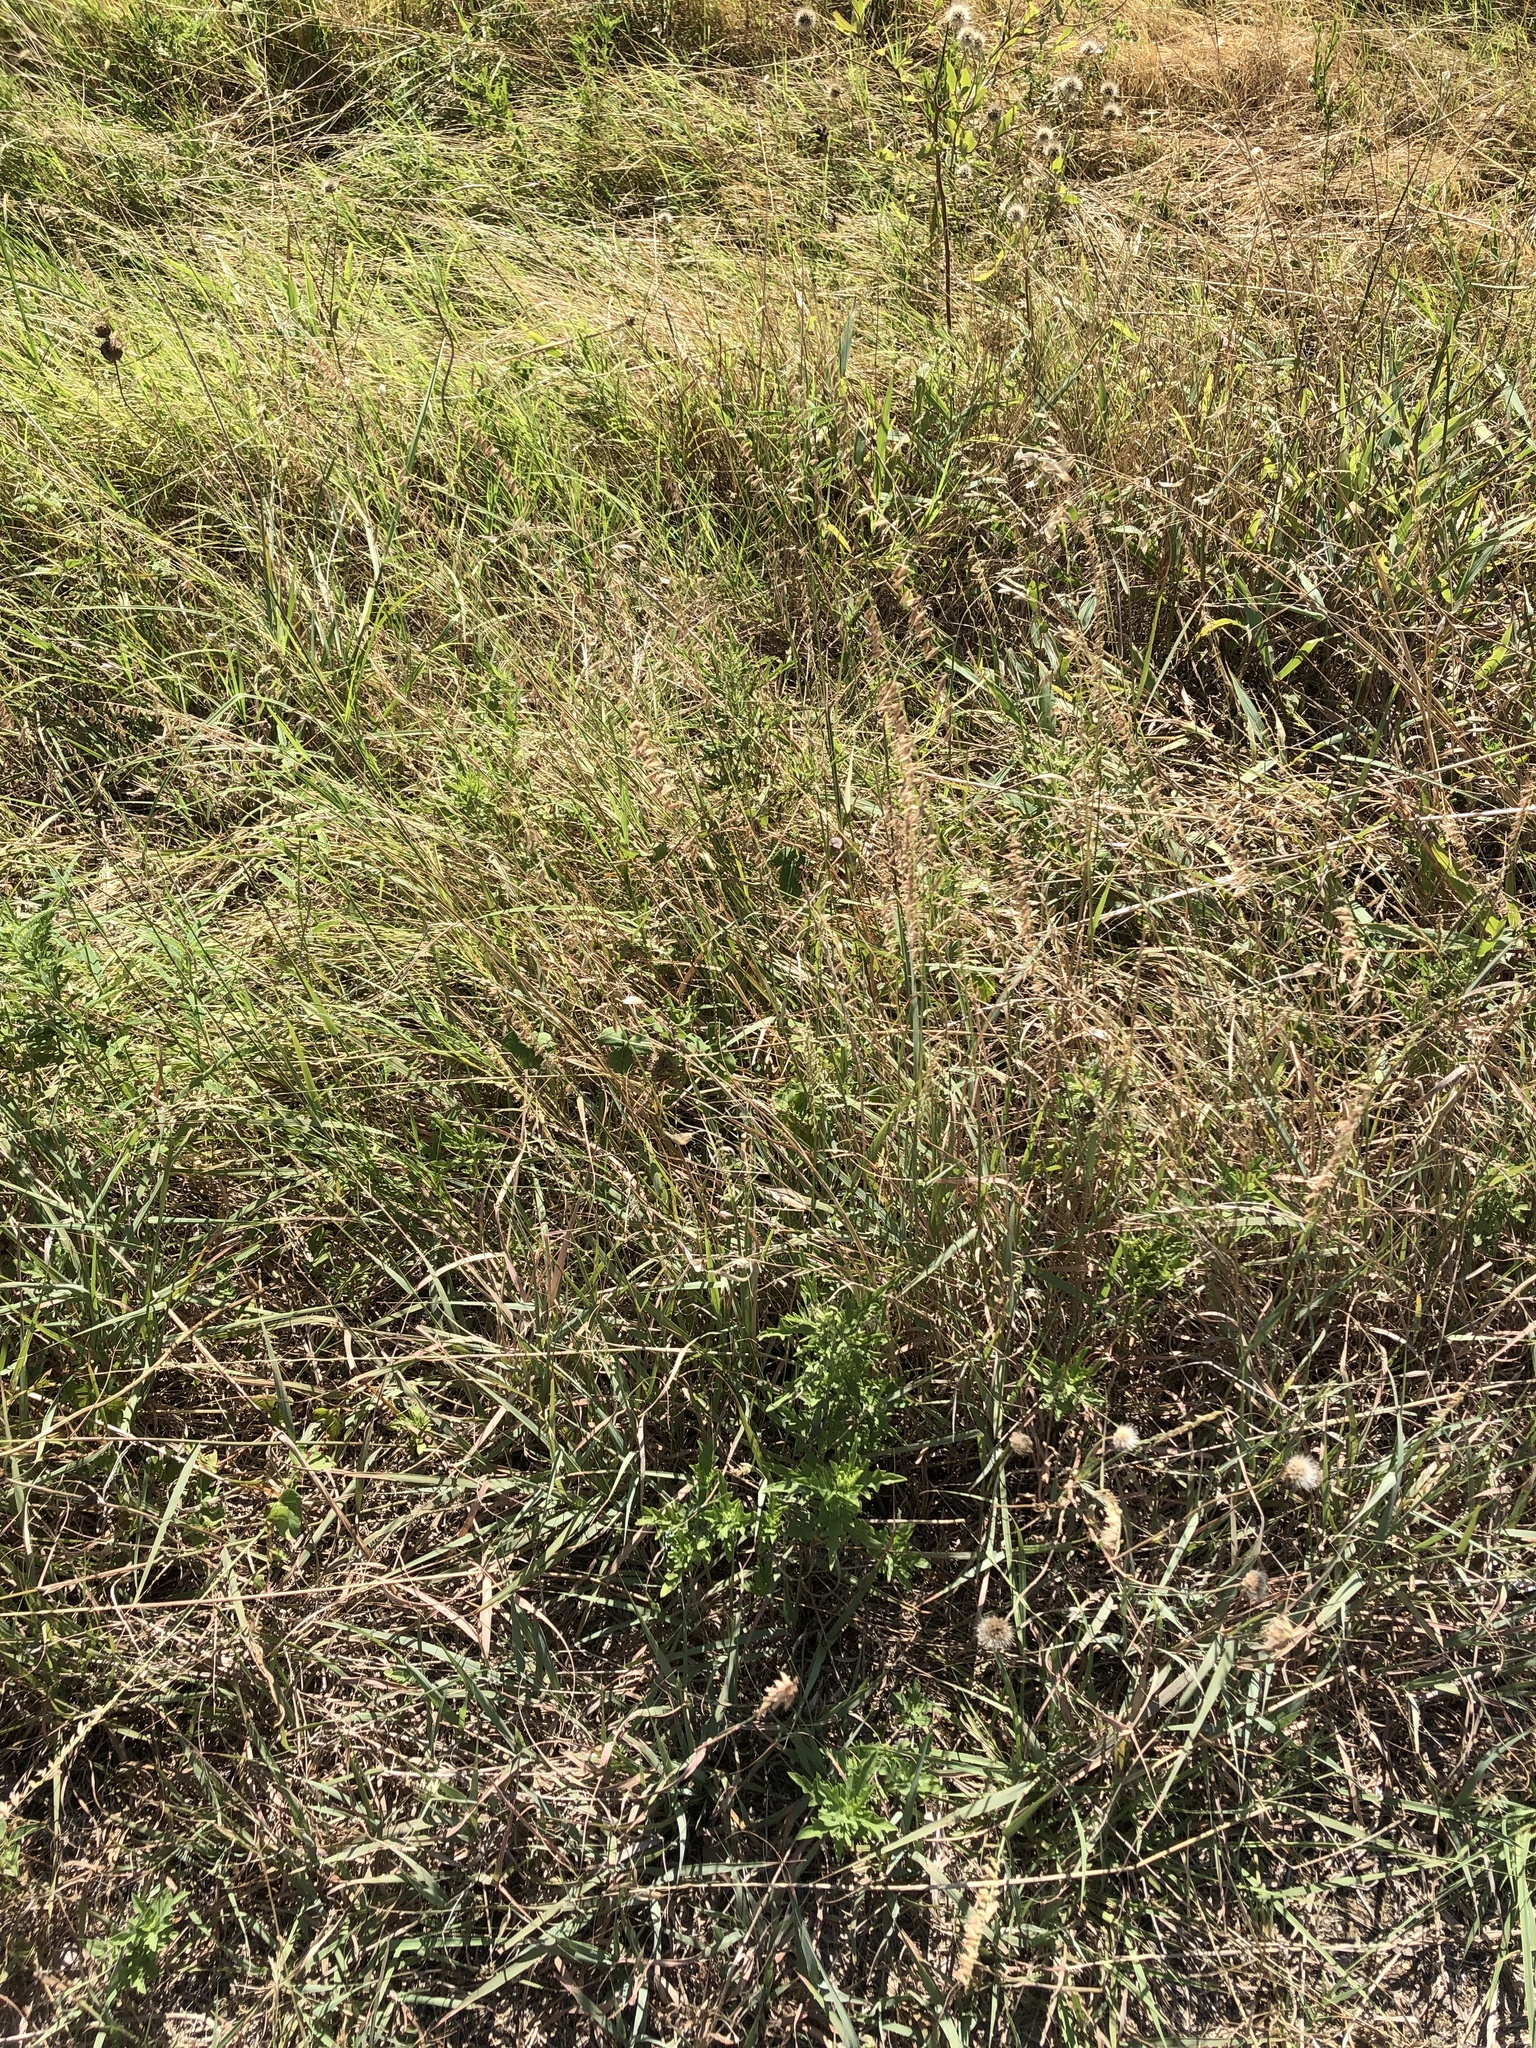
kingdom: Plantae
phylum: Tracheophyta
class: Liliopsida
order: Poales
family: Poaceae
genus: Bouteloua
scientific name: Bouteloua curtipendula
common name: Side-oats grama
